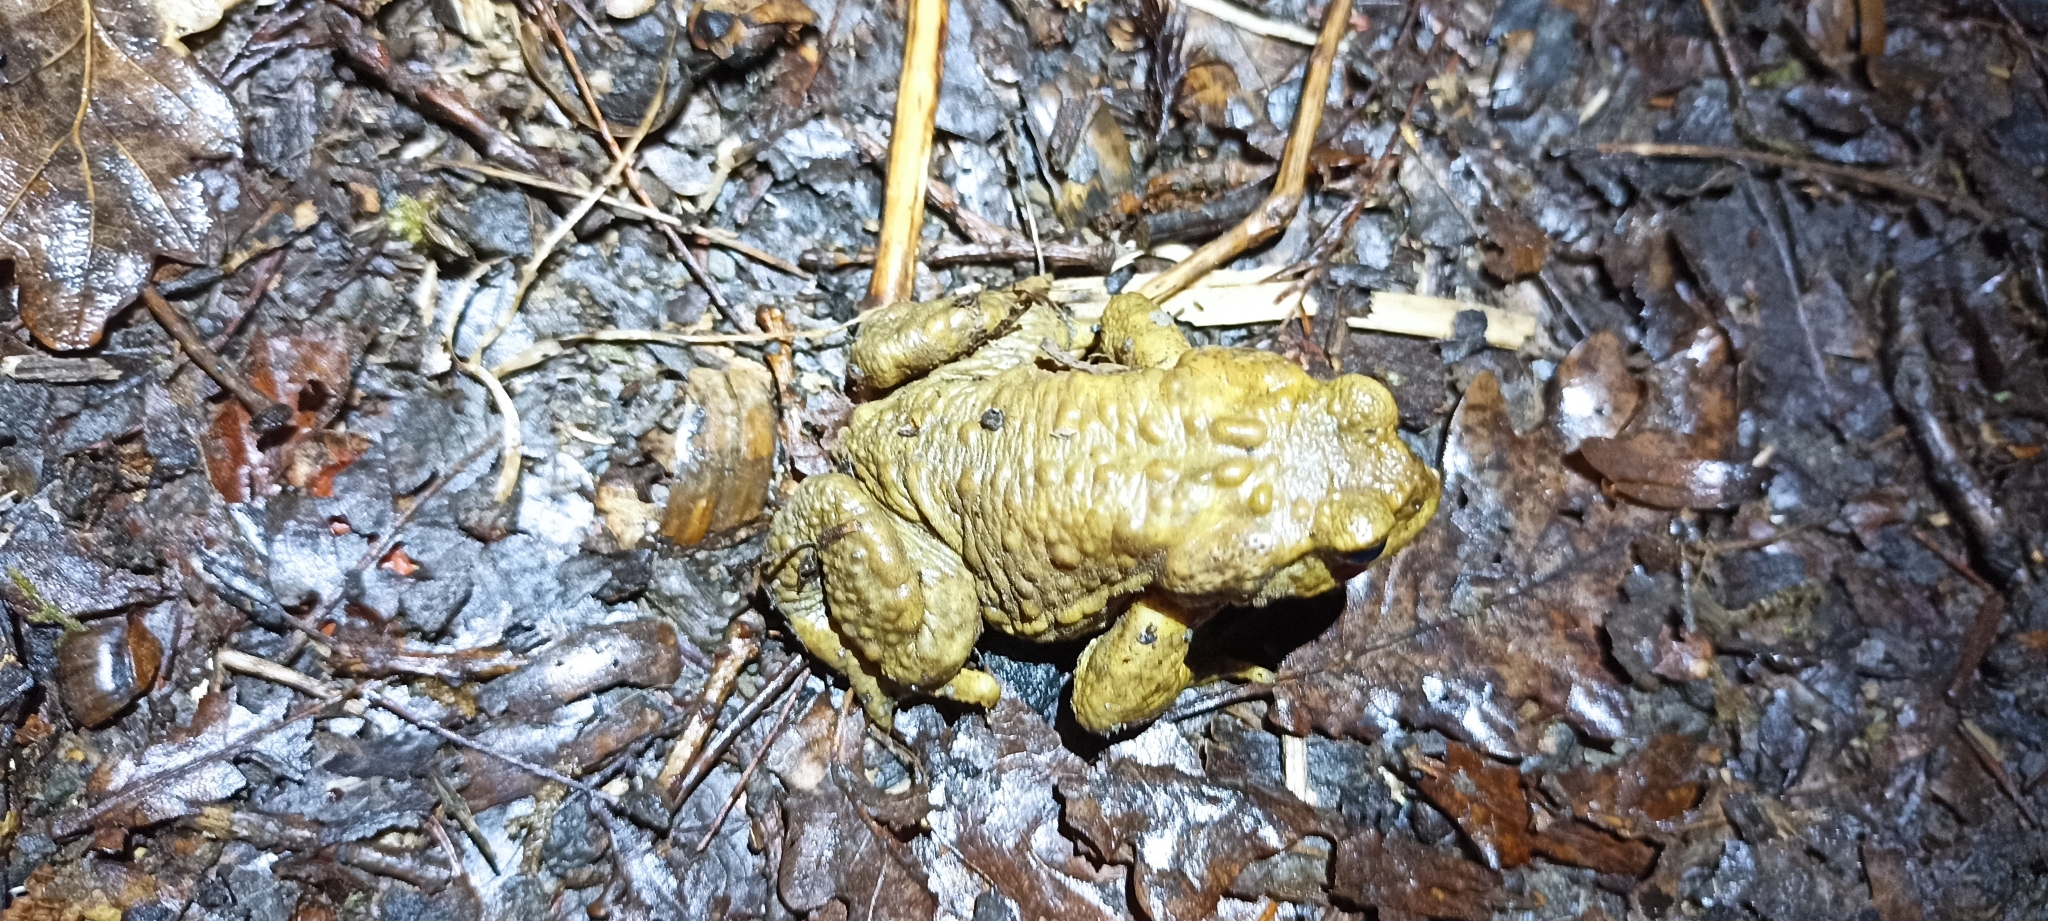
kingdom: Animalia
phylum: Chordata
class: Amphibia
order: Anura
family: Bufonidae
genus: Bufo
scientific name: Bufo spinosus
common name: Western common toad
